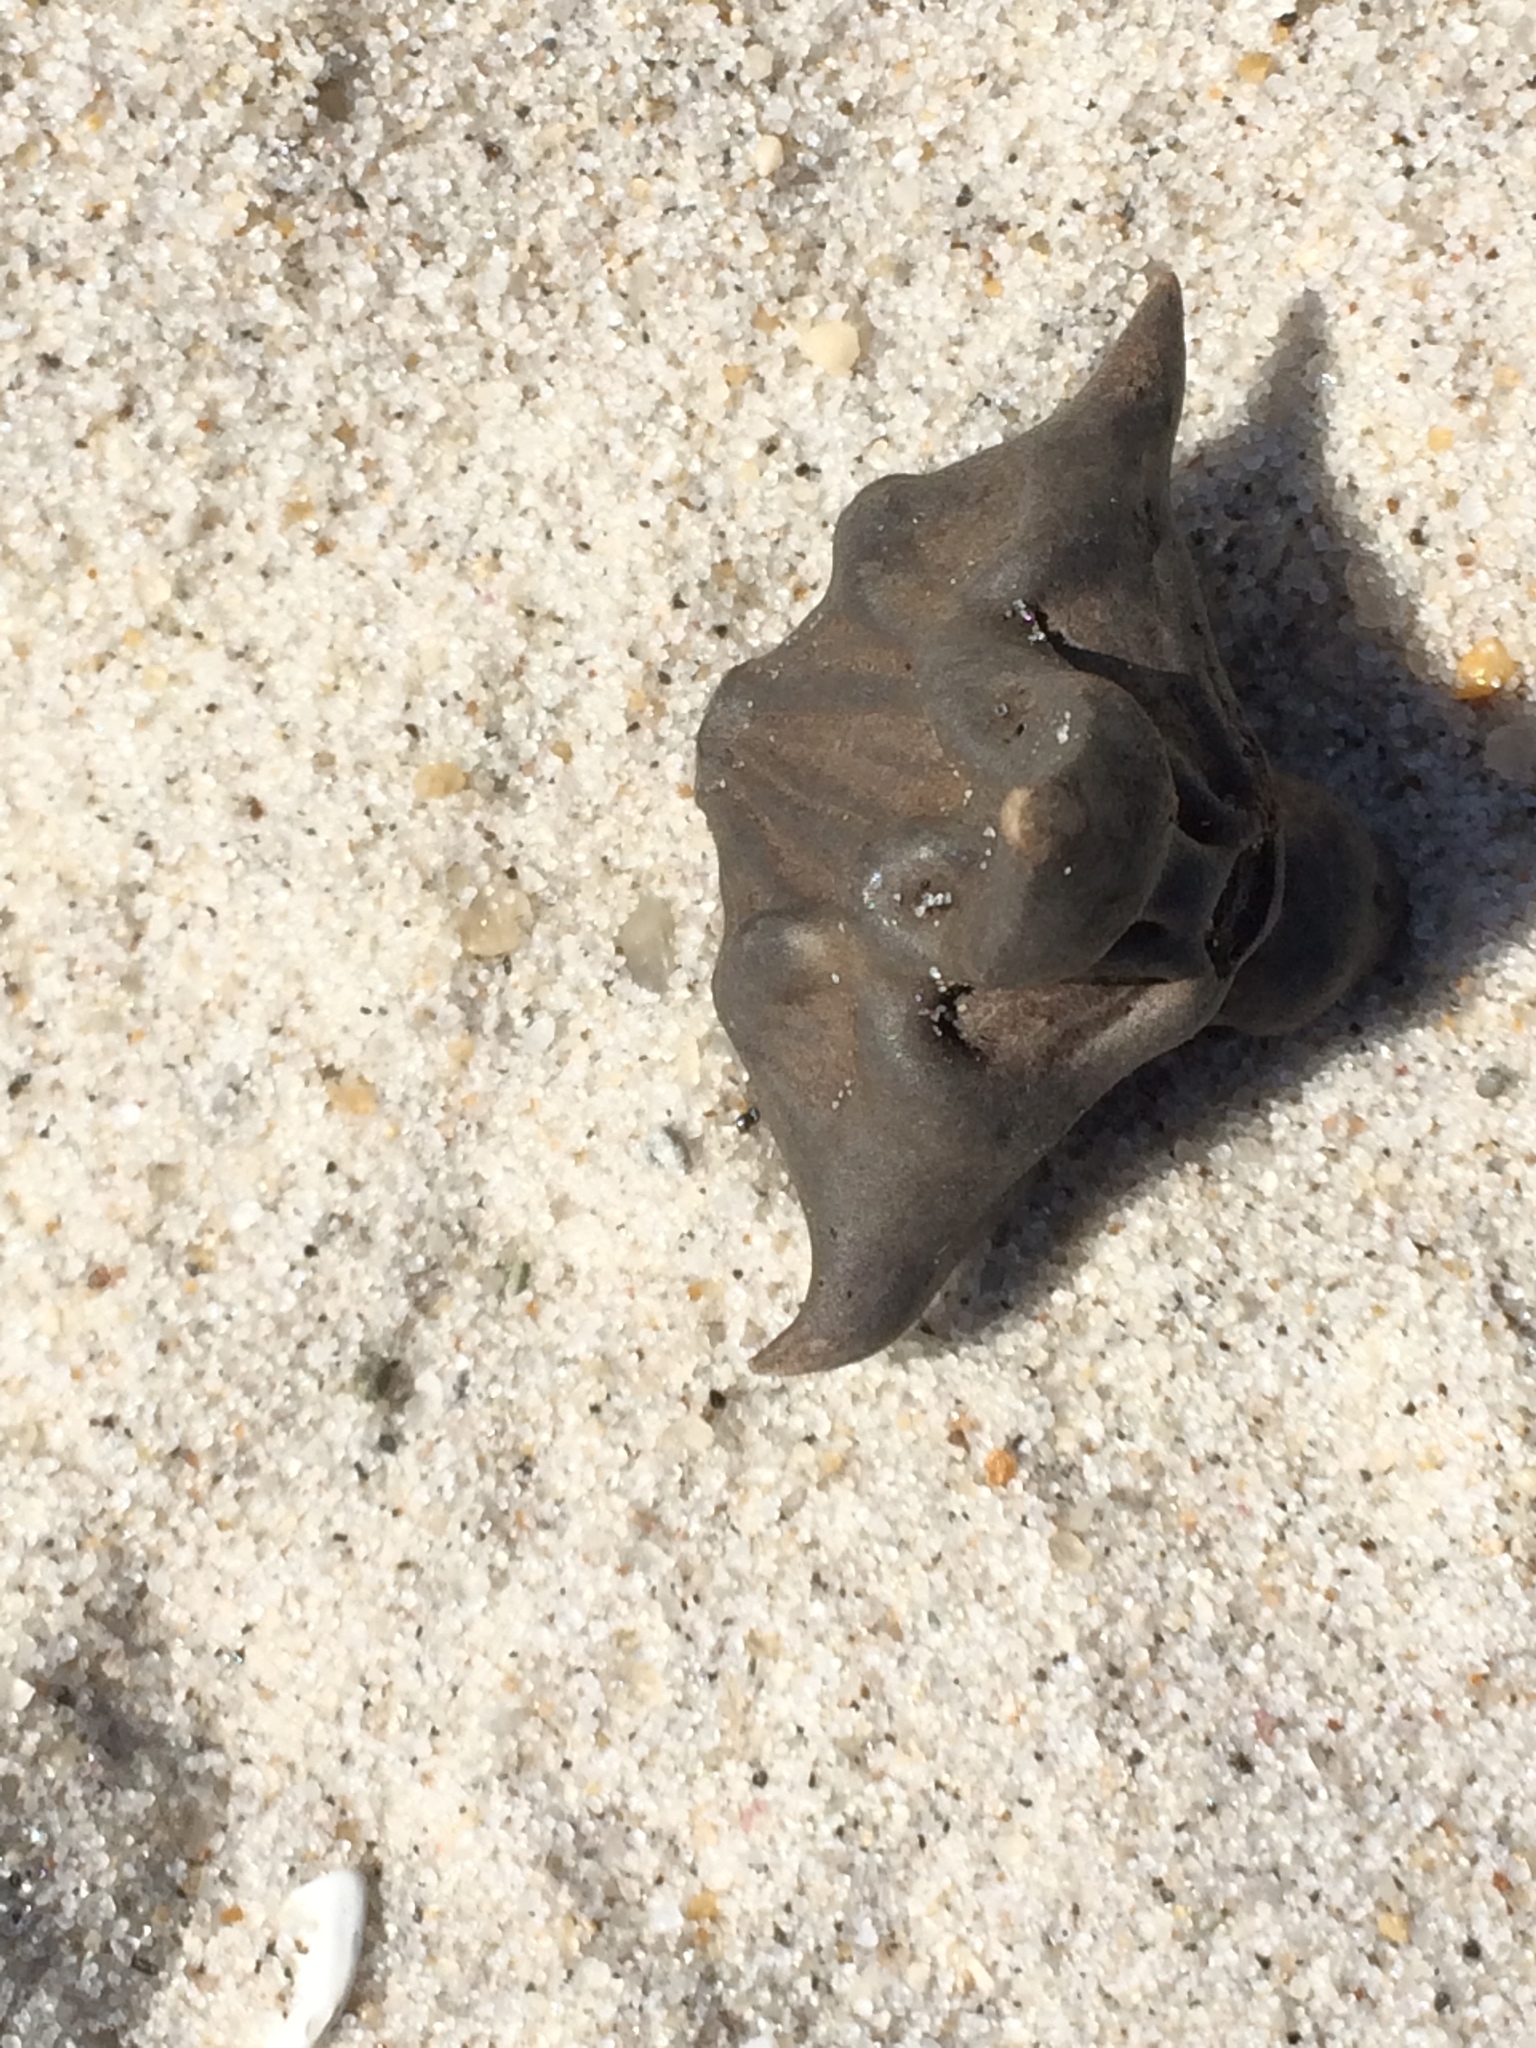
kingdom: Plantae
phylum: Tracheophyta
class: Magnoliopsida
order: Myrtales
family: Lythraceae
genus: Trapa
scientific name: Trapa natans
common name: Water chestnut
